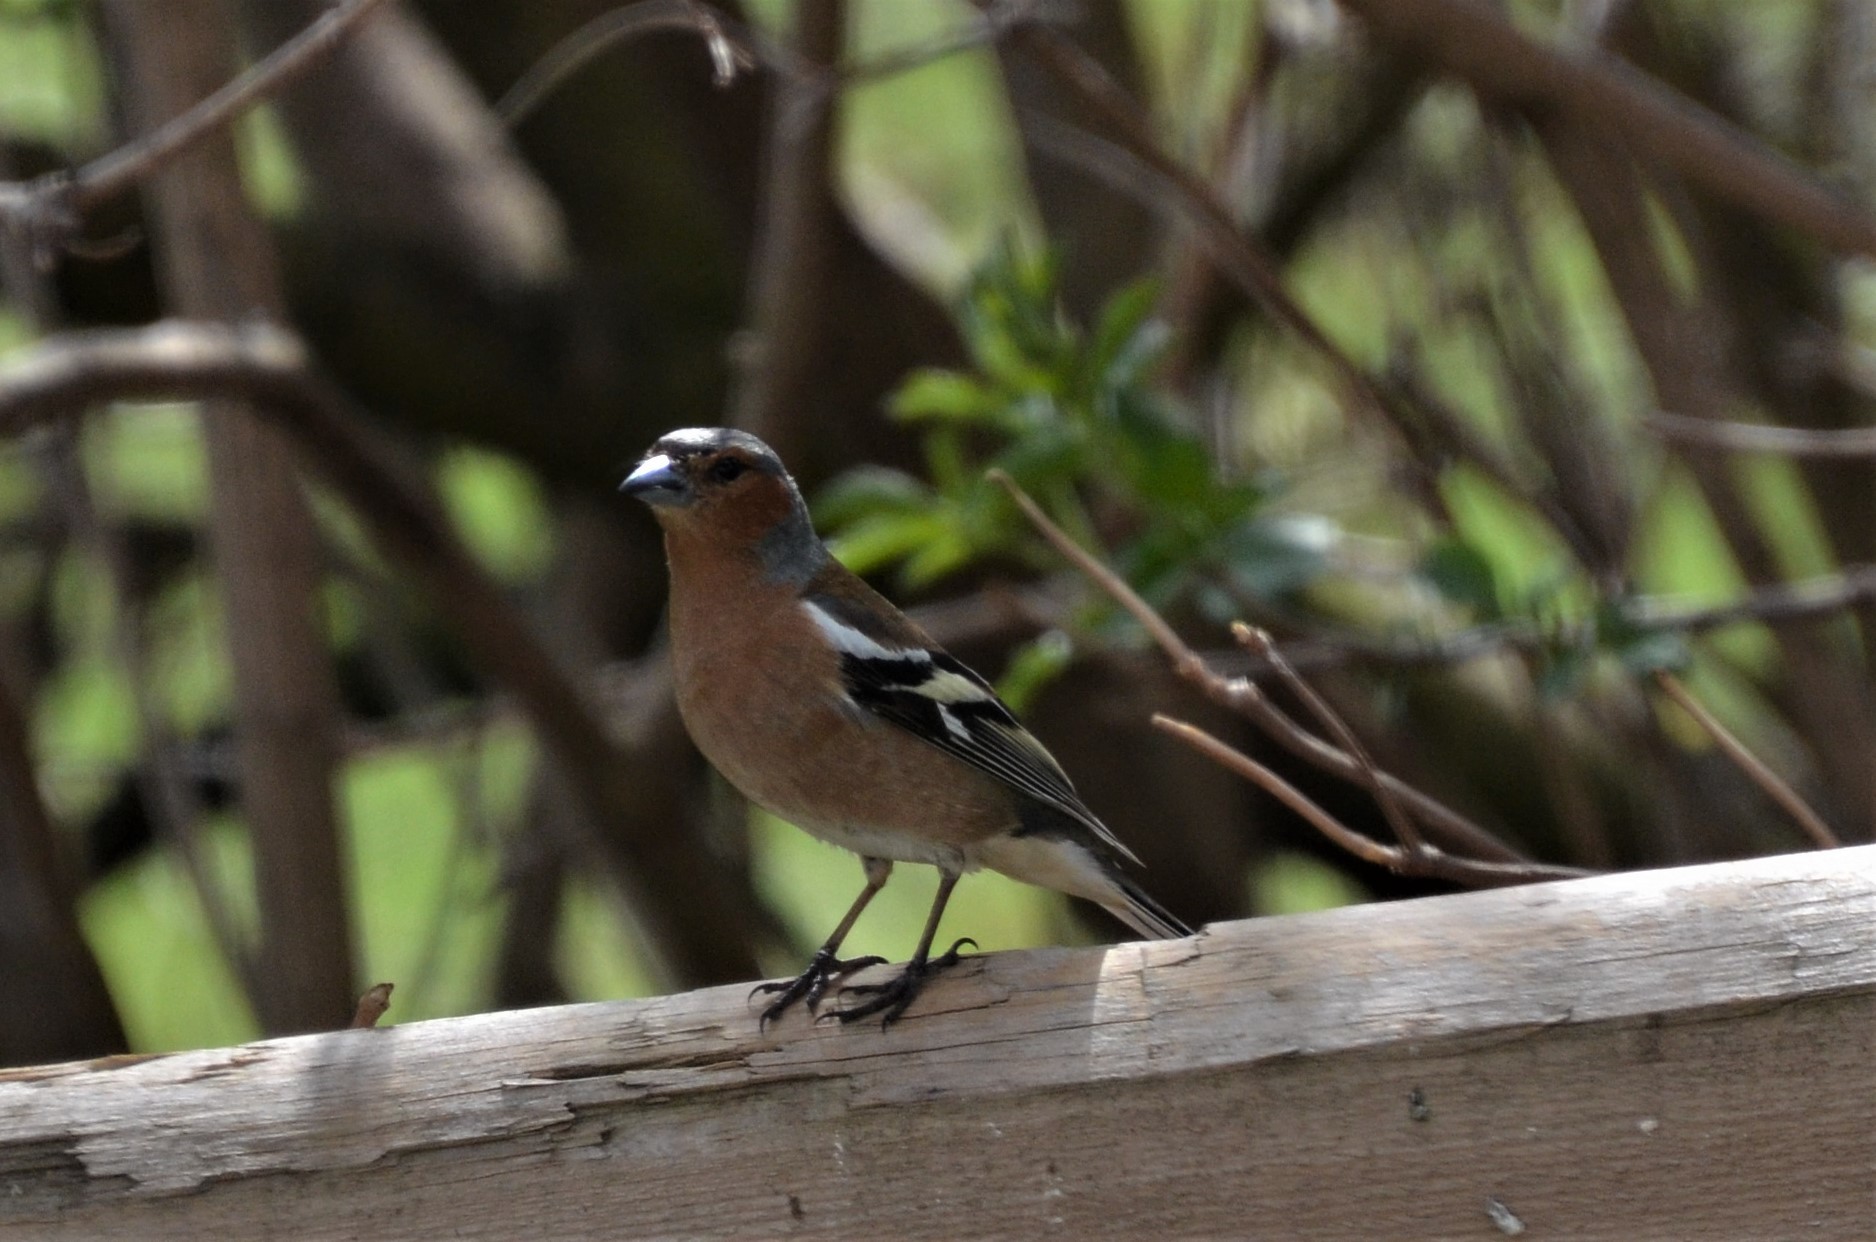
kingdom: Animalia
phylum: Chordata
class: Aves
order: Passeriformes
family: Fringillidae
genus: Fringilla
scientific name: Fringilla coelebs
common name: Common chaffinch
